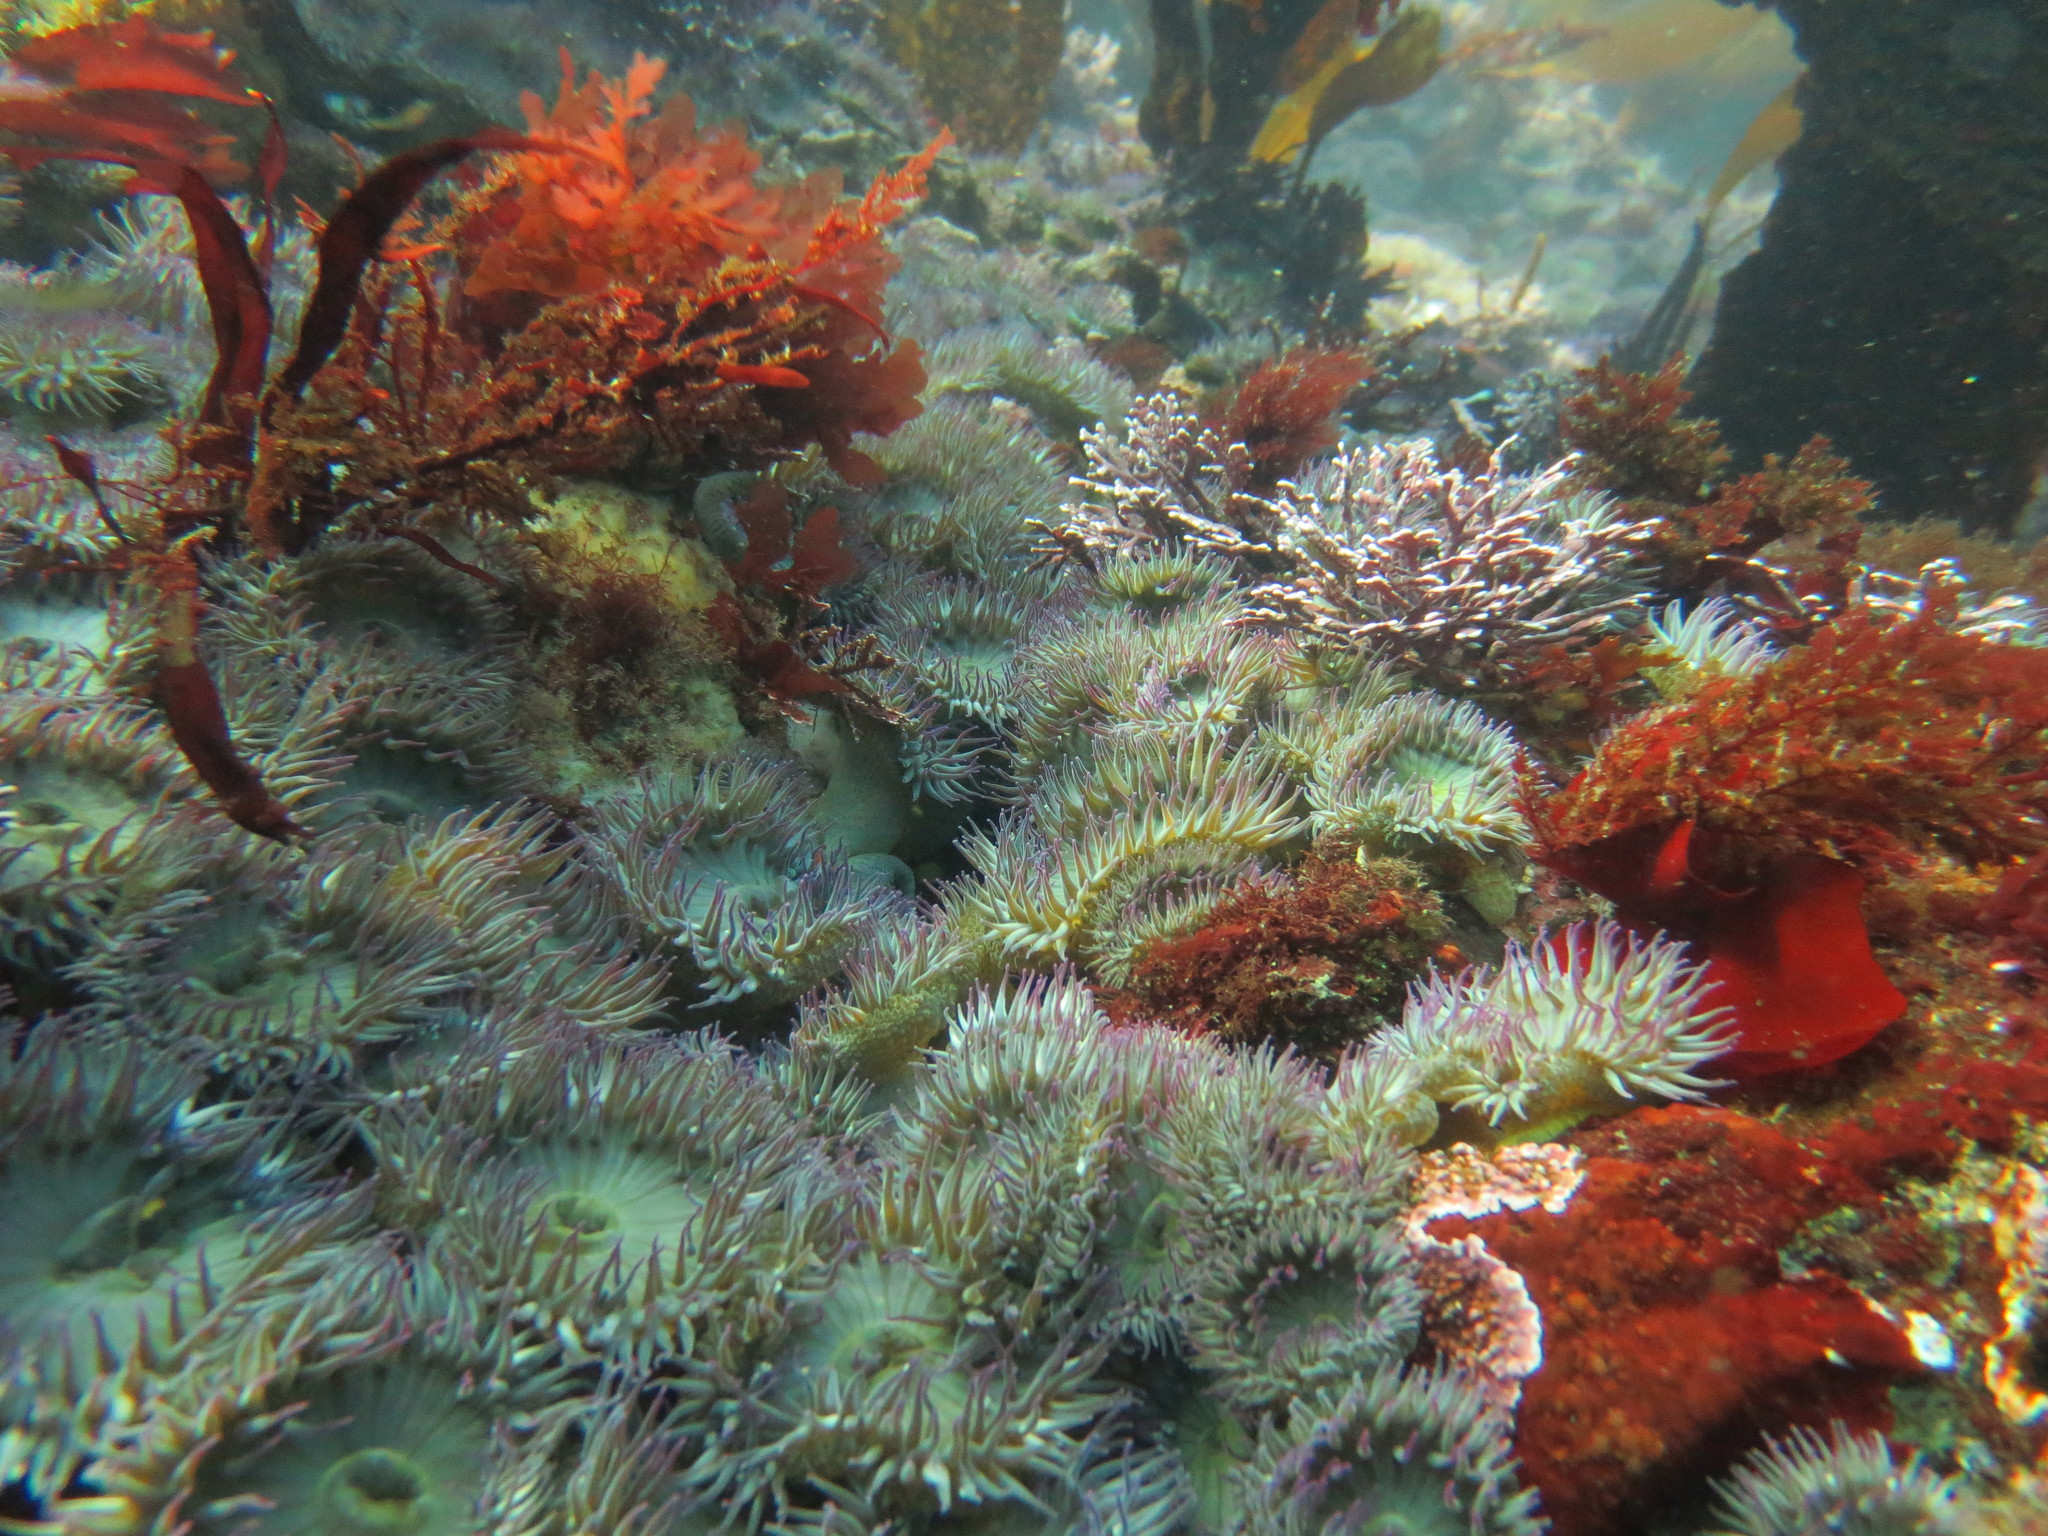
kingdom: Animalia
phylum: Cnidaria
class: Anthozoa
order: Actiniaria
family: Actiniidae
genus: Anthopleura
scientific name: Anthopleura elegantissima
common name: Clonal anemone
